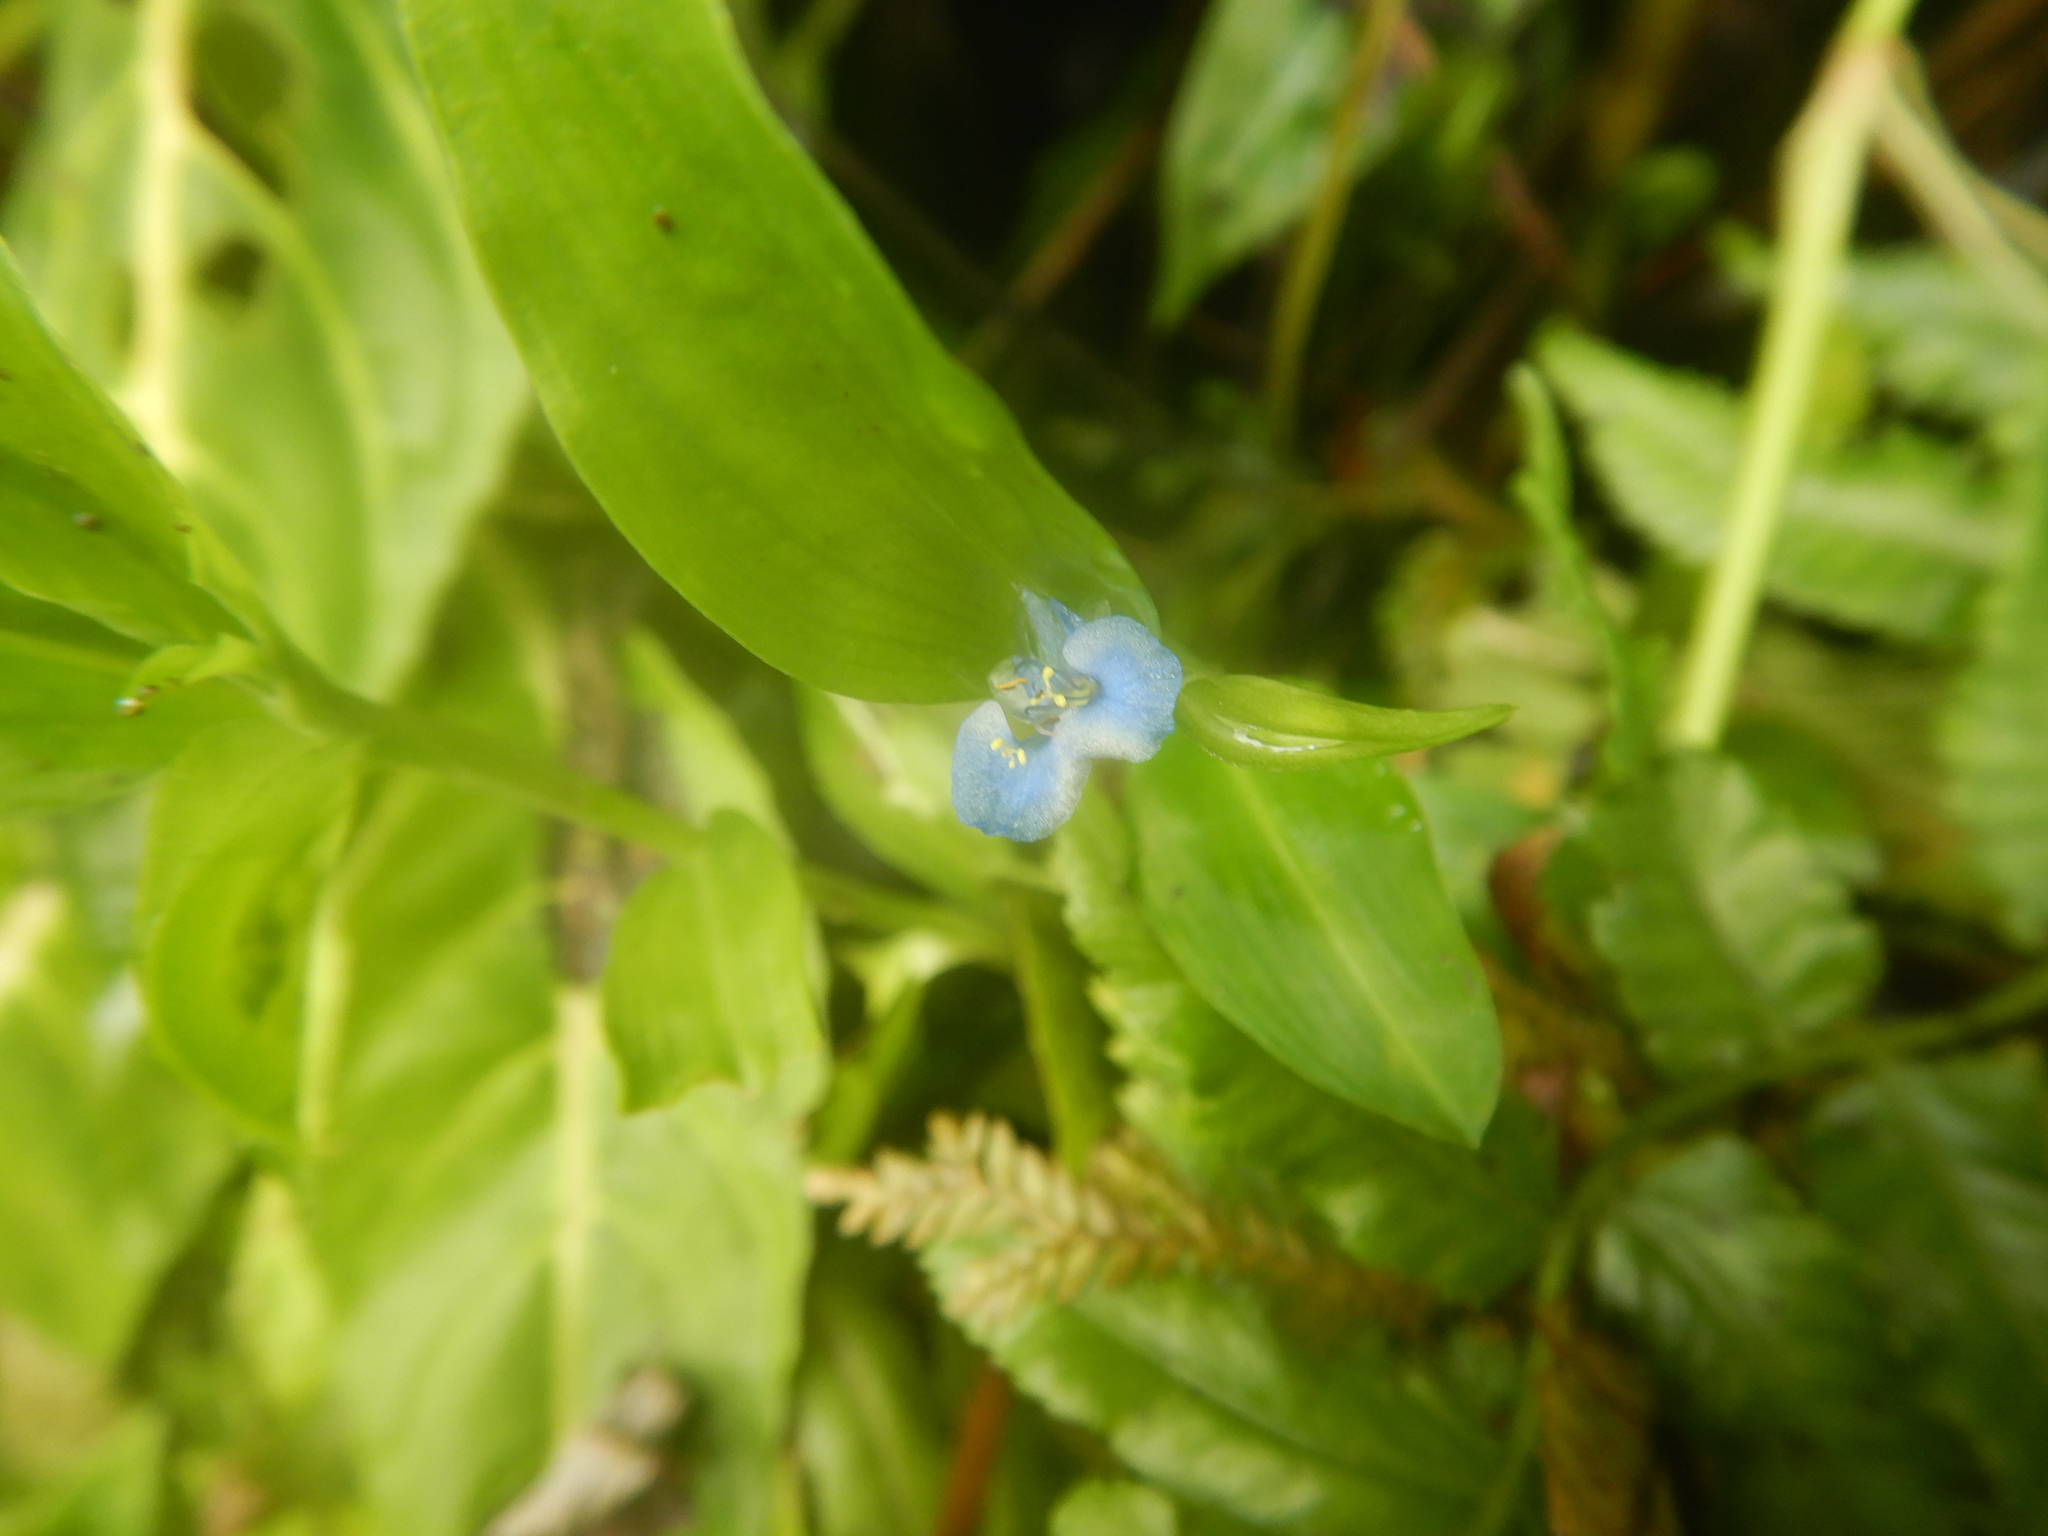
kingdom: Plantae
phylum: Tracheophyta
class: Liliopsida
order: Commelinales
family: Commelinaceae
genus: Commelina
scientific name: Commelina diffusa
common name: Climbing dayflower
